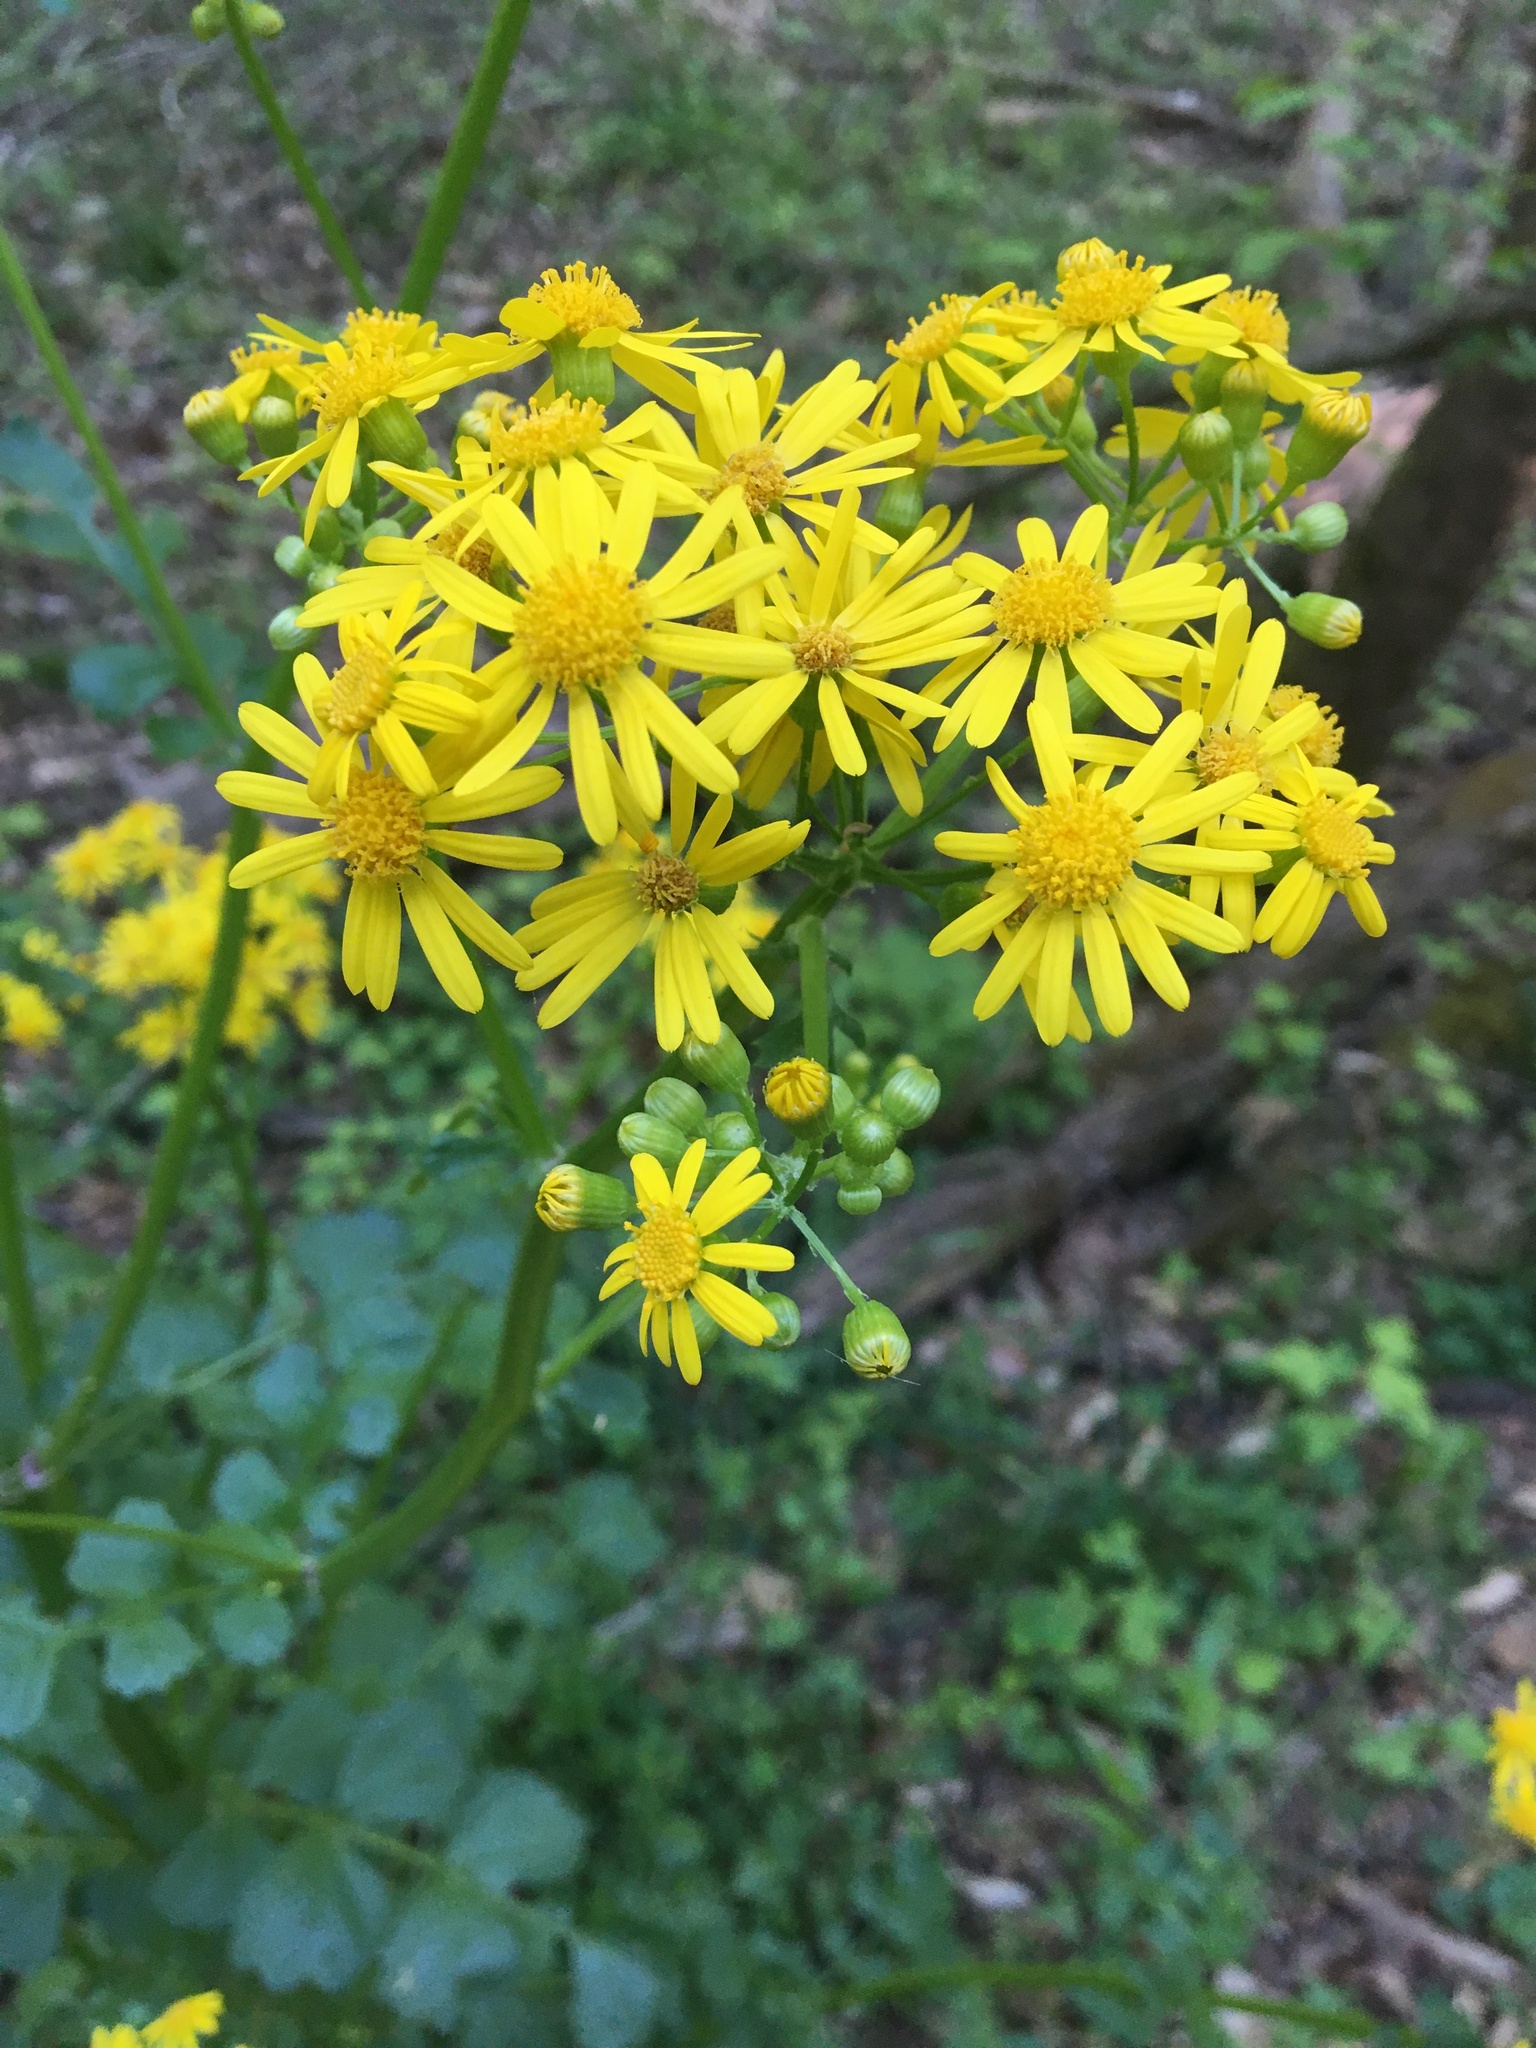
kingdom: Plantae
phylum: Tracheophyta
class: Magnoliopsida
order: Asterales
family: Asteraceae
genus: Packera
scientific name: Packera glabella
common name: Butterweed
